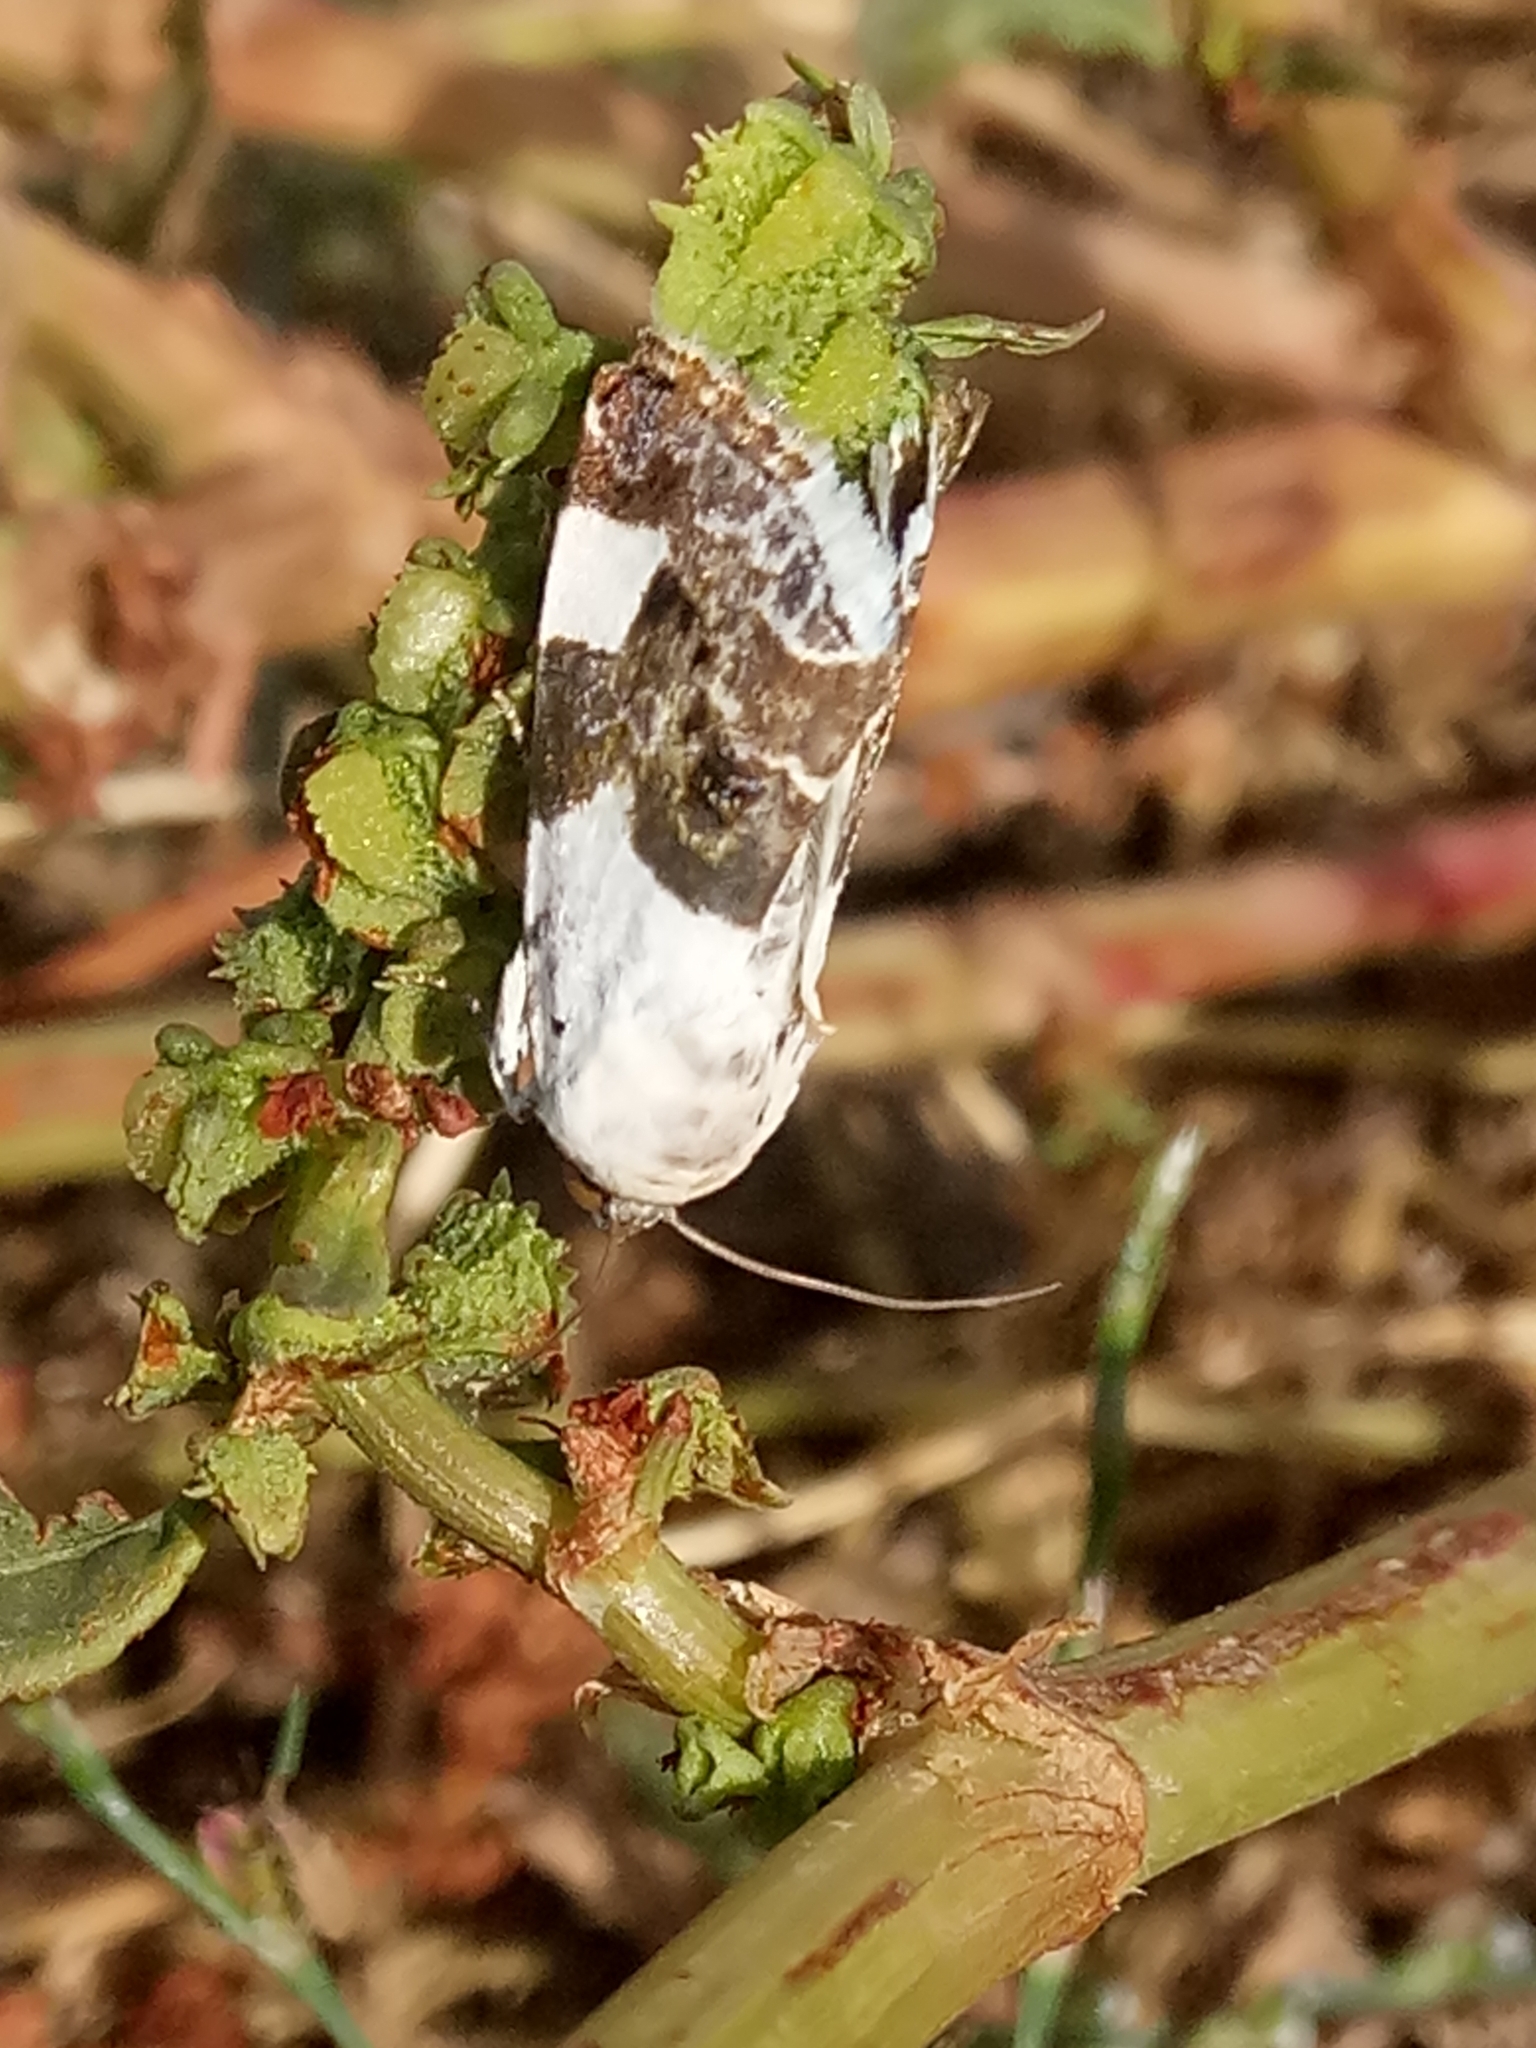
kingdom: Animalia
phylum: Arthropoda
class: Insecta
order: Lepidoptera
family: Noctuidae
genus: Acontia
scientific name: Acontia lucida
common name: Pale shoulder
